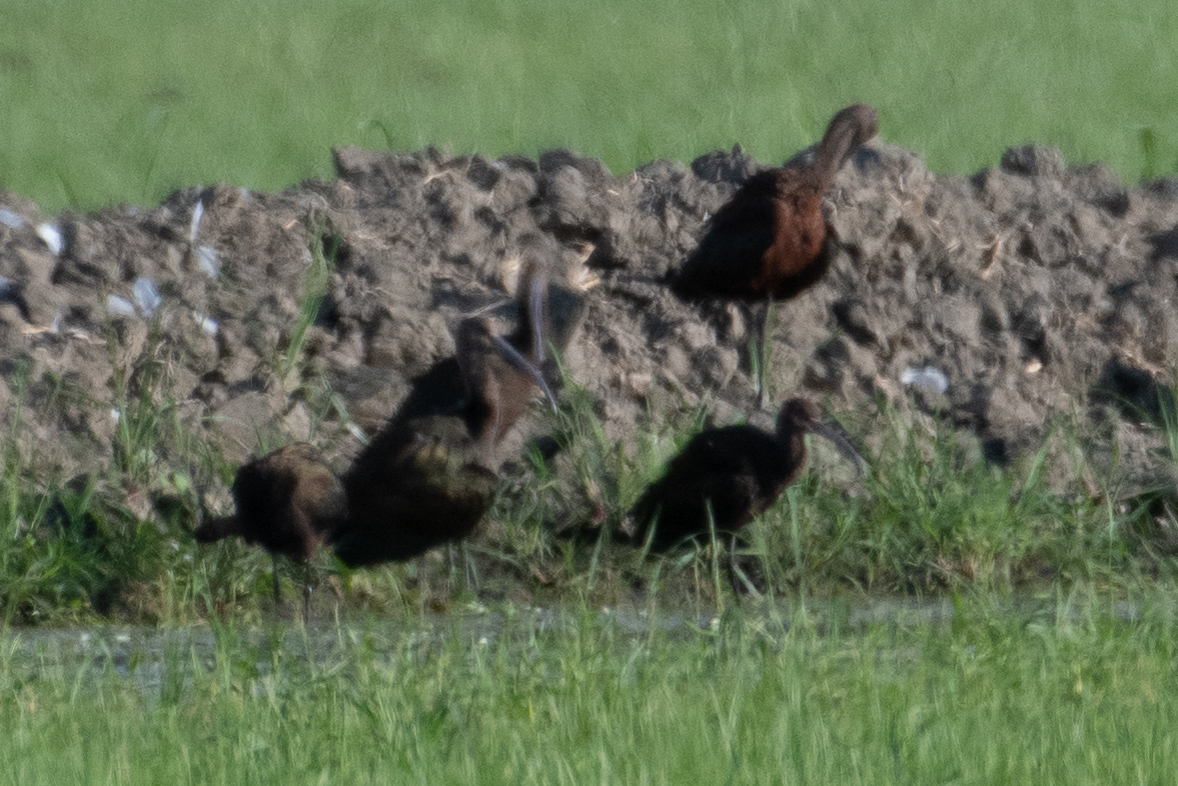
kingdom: Animalia
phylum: Chordata
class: Aves
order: Pelecaniformes
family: Threskiornithidae
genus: Plegadis
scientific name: Plegadis chihi
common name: White-faced ibis
